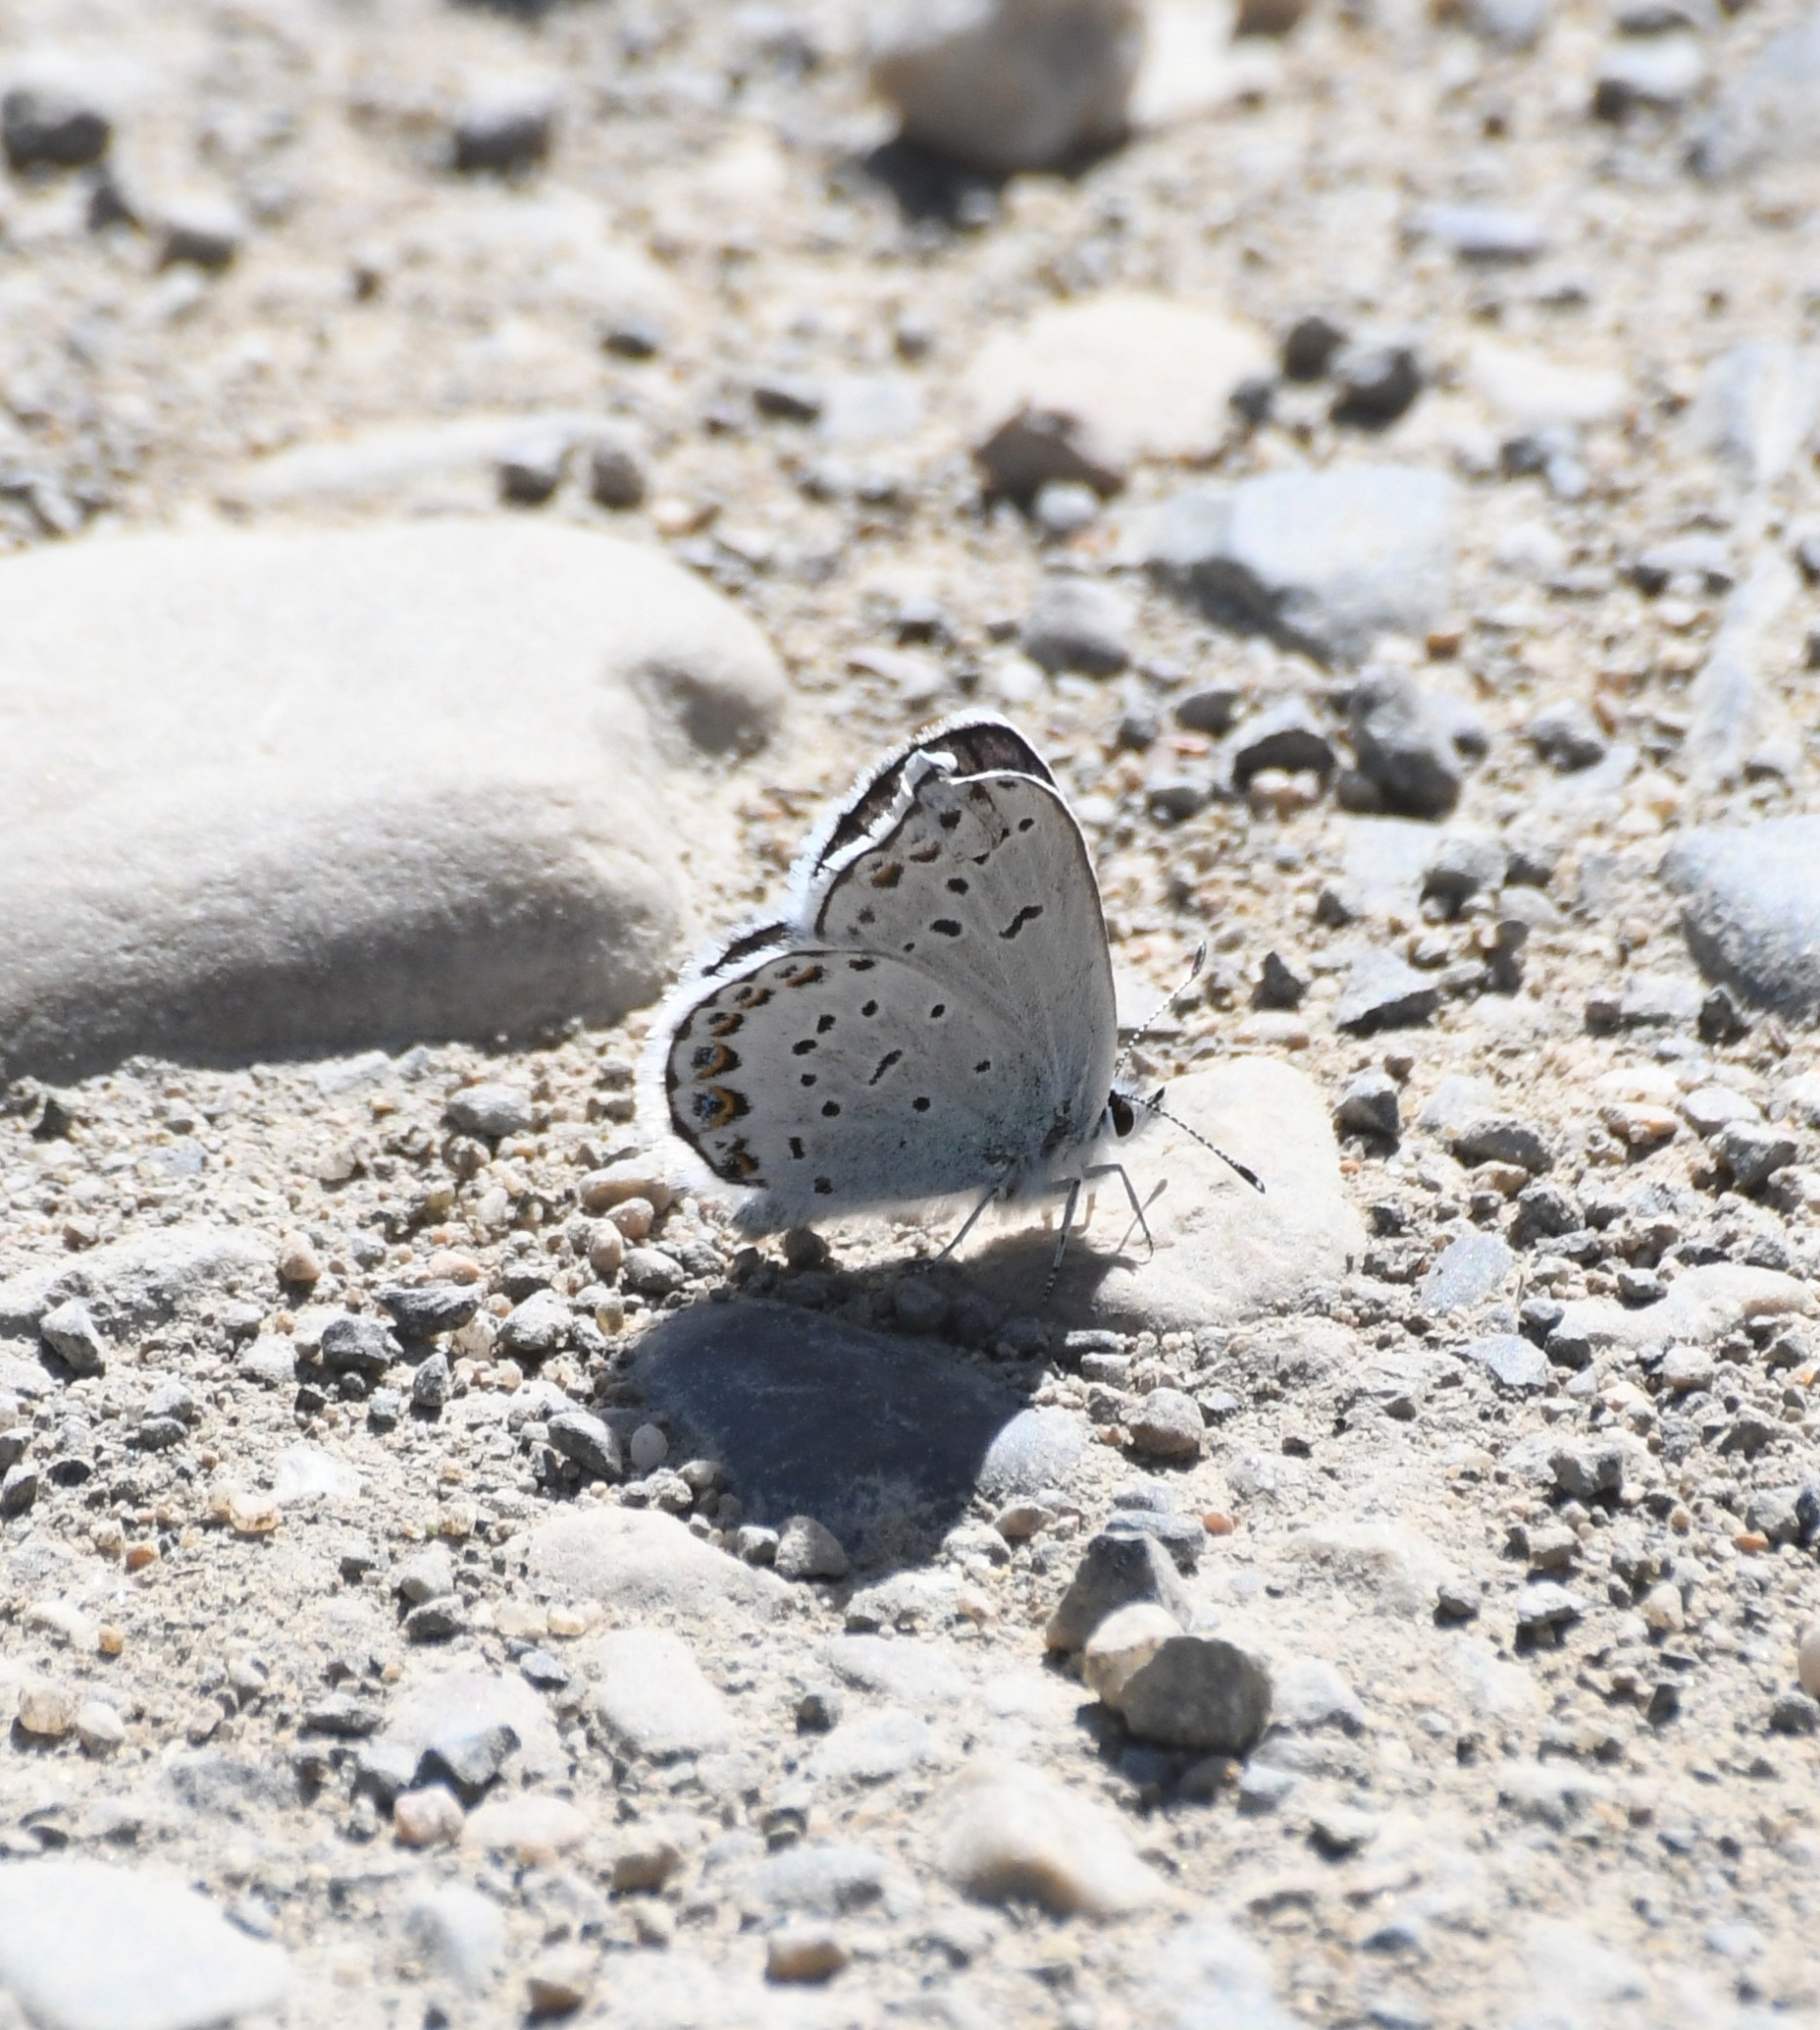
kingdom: Animalia
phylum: Arthropoda
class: Insecta
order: Lepidoptera
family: Lycaenidae
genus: Lycaeides
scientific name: Lycaeides idas
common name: Northern blue
